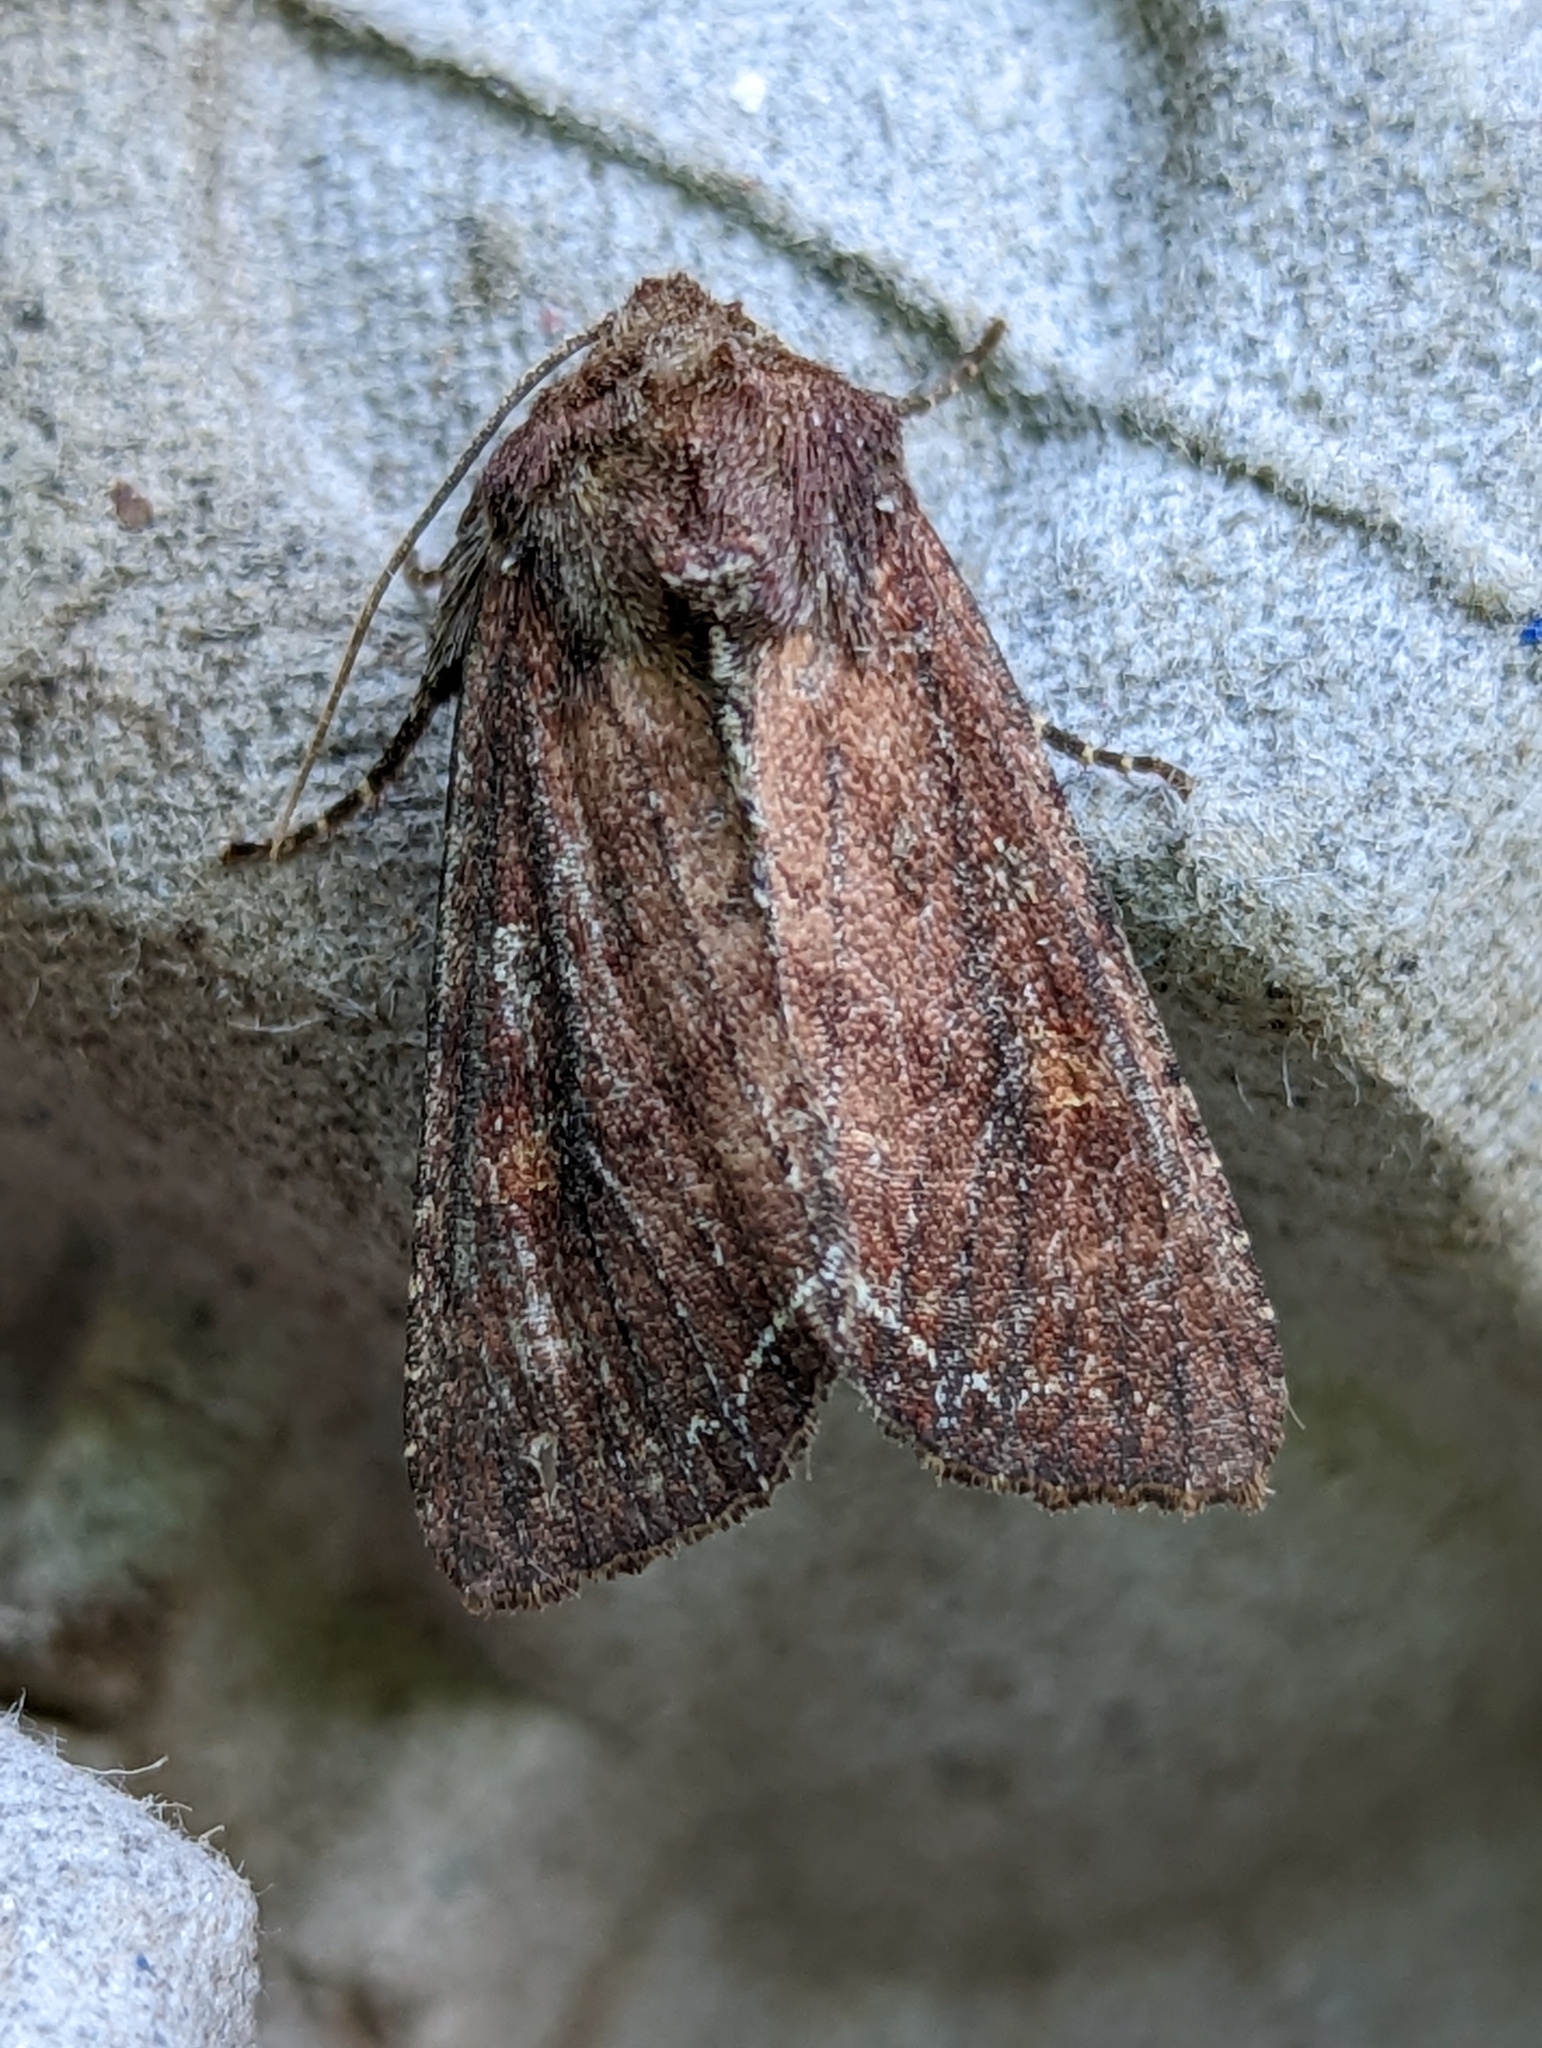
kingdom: Animalia
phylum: Arthropoda
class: Insecta
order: Lepidoptera
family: Noctuidae
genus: Lacanobia
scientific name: Lacanobia oleracea
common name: Bright-line brown-eye
